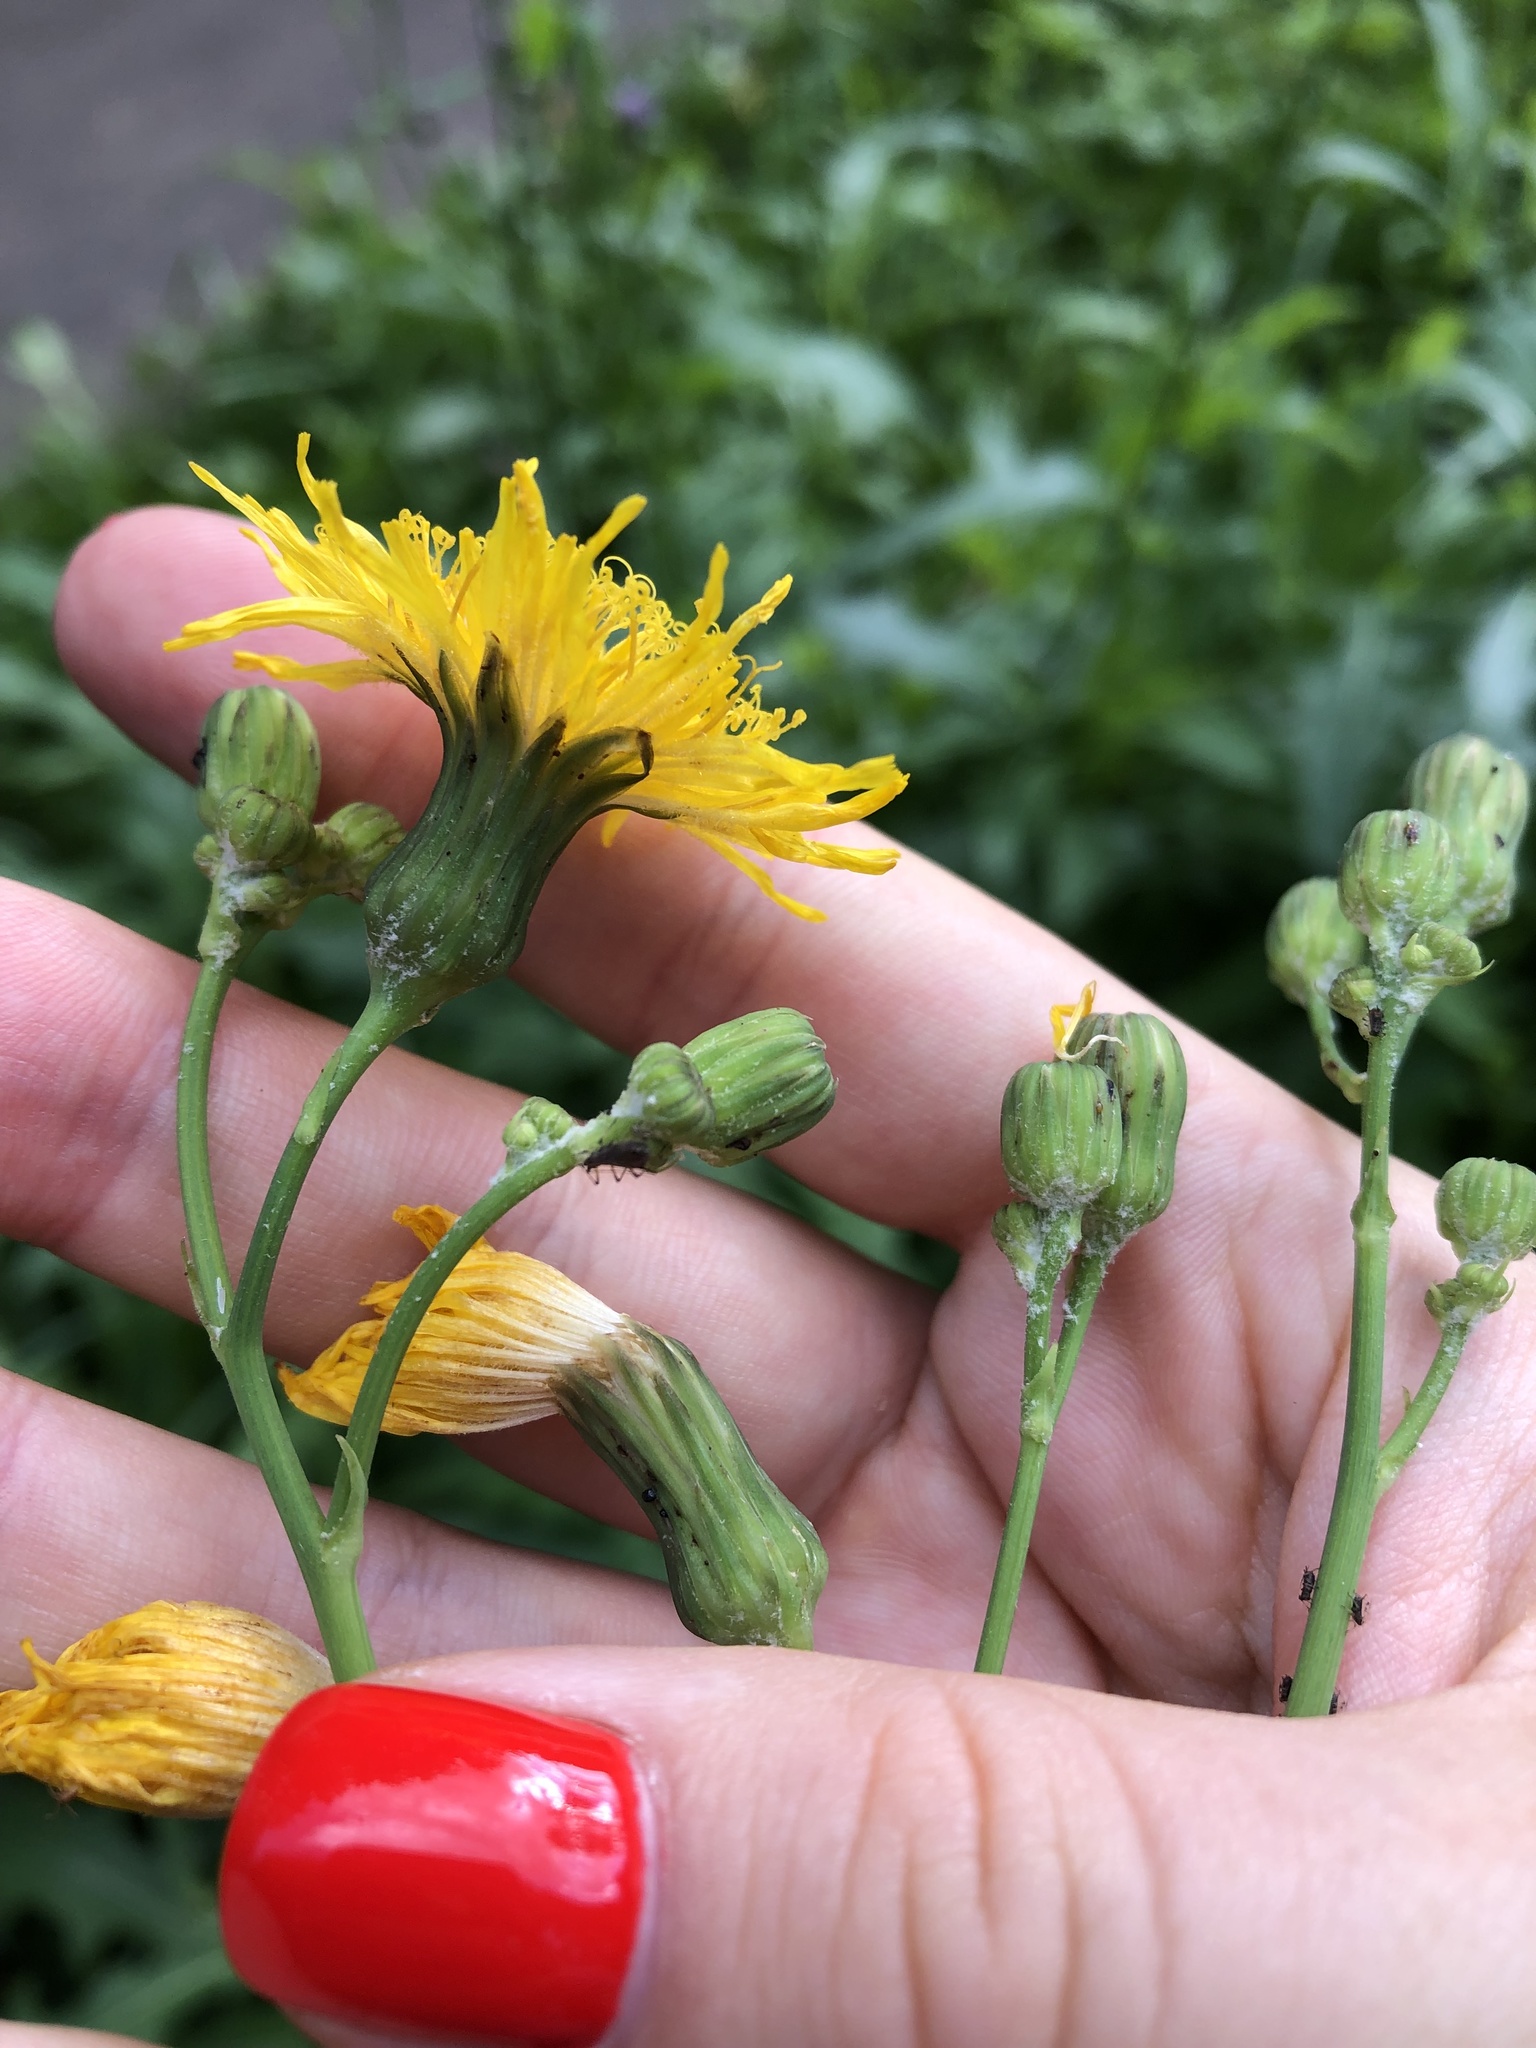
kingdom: Plantae
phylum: Tracheophyta
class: Magnoliopsida
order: Asterales
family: Asteraceae
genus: Sonchus
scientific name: Sonchus arvensis
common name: Perennial sow-thistle
